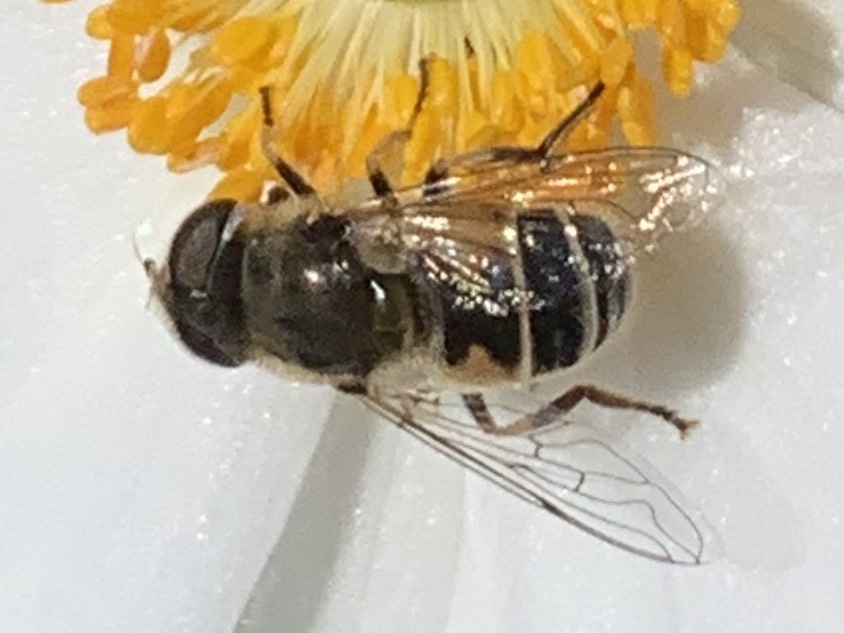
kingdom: Animalia
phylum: Arthropoda
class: Insecta
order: Diptera
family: Syrphidae
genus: Eristalis
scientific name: Eristalis arbustorum
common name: Hover fly
